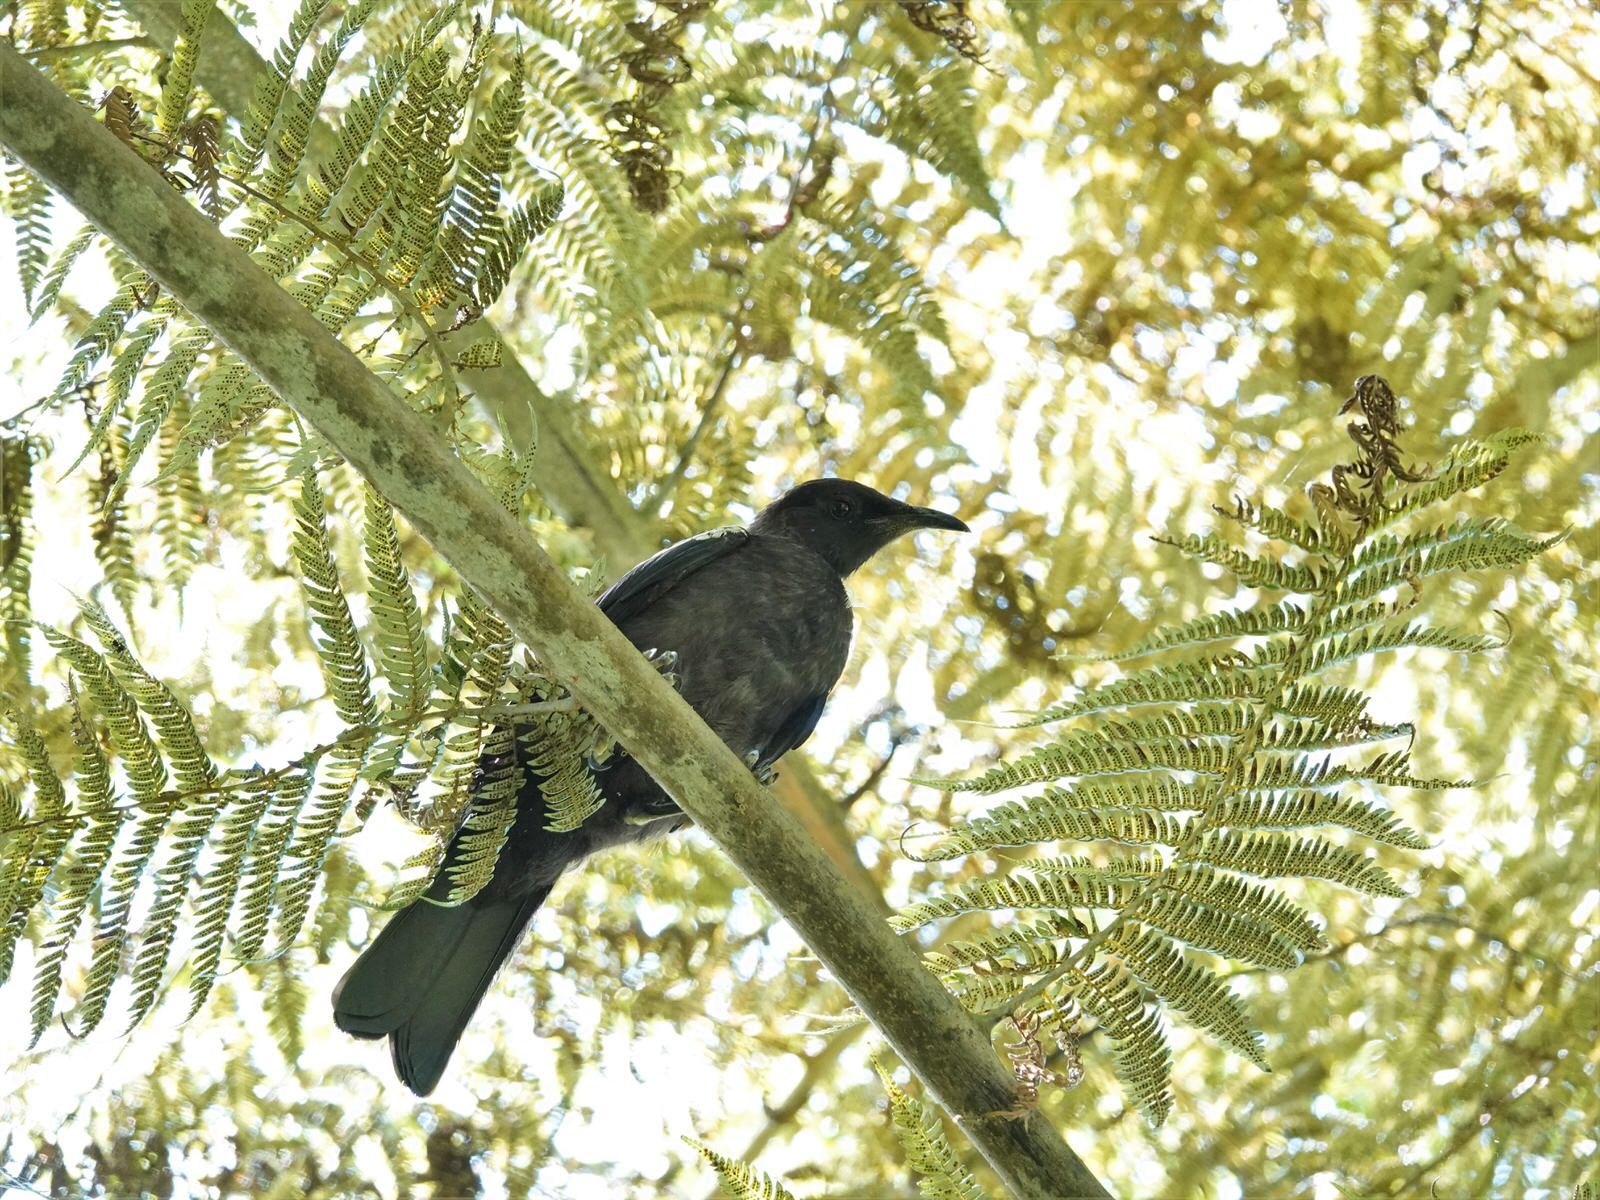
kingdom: Animalia
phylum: Chordata
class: Aves
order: Passeriformes
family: Meliphagidae
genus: Prosthemadera
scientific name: Prosthemadera novaeseelandiae
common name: Tui
